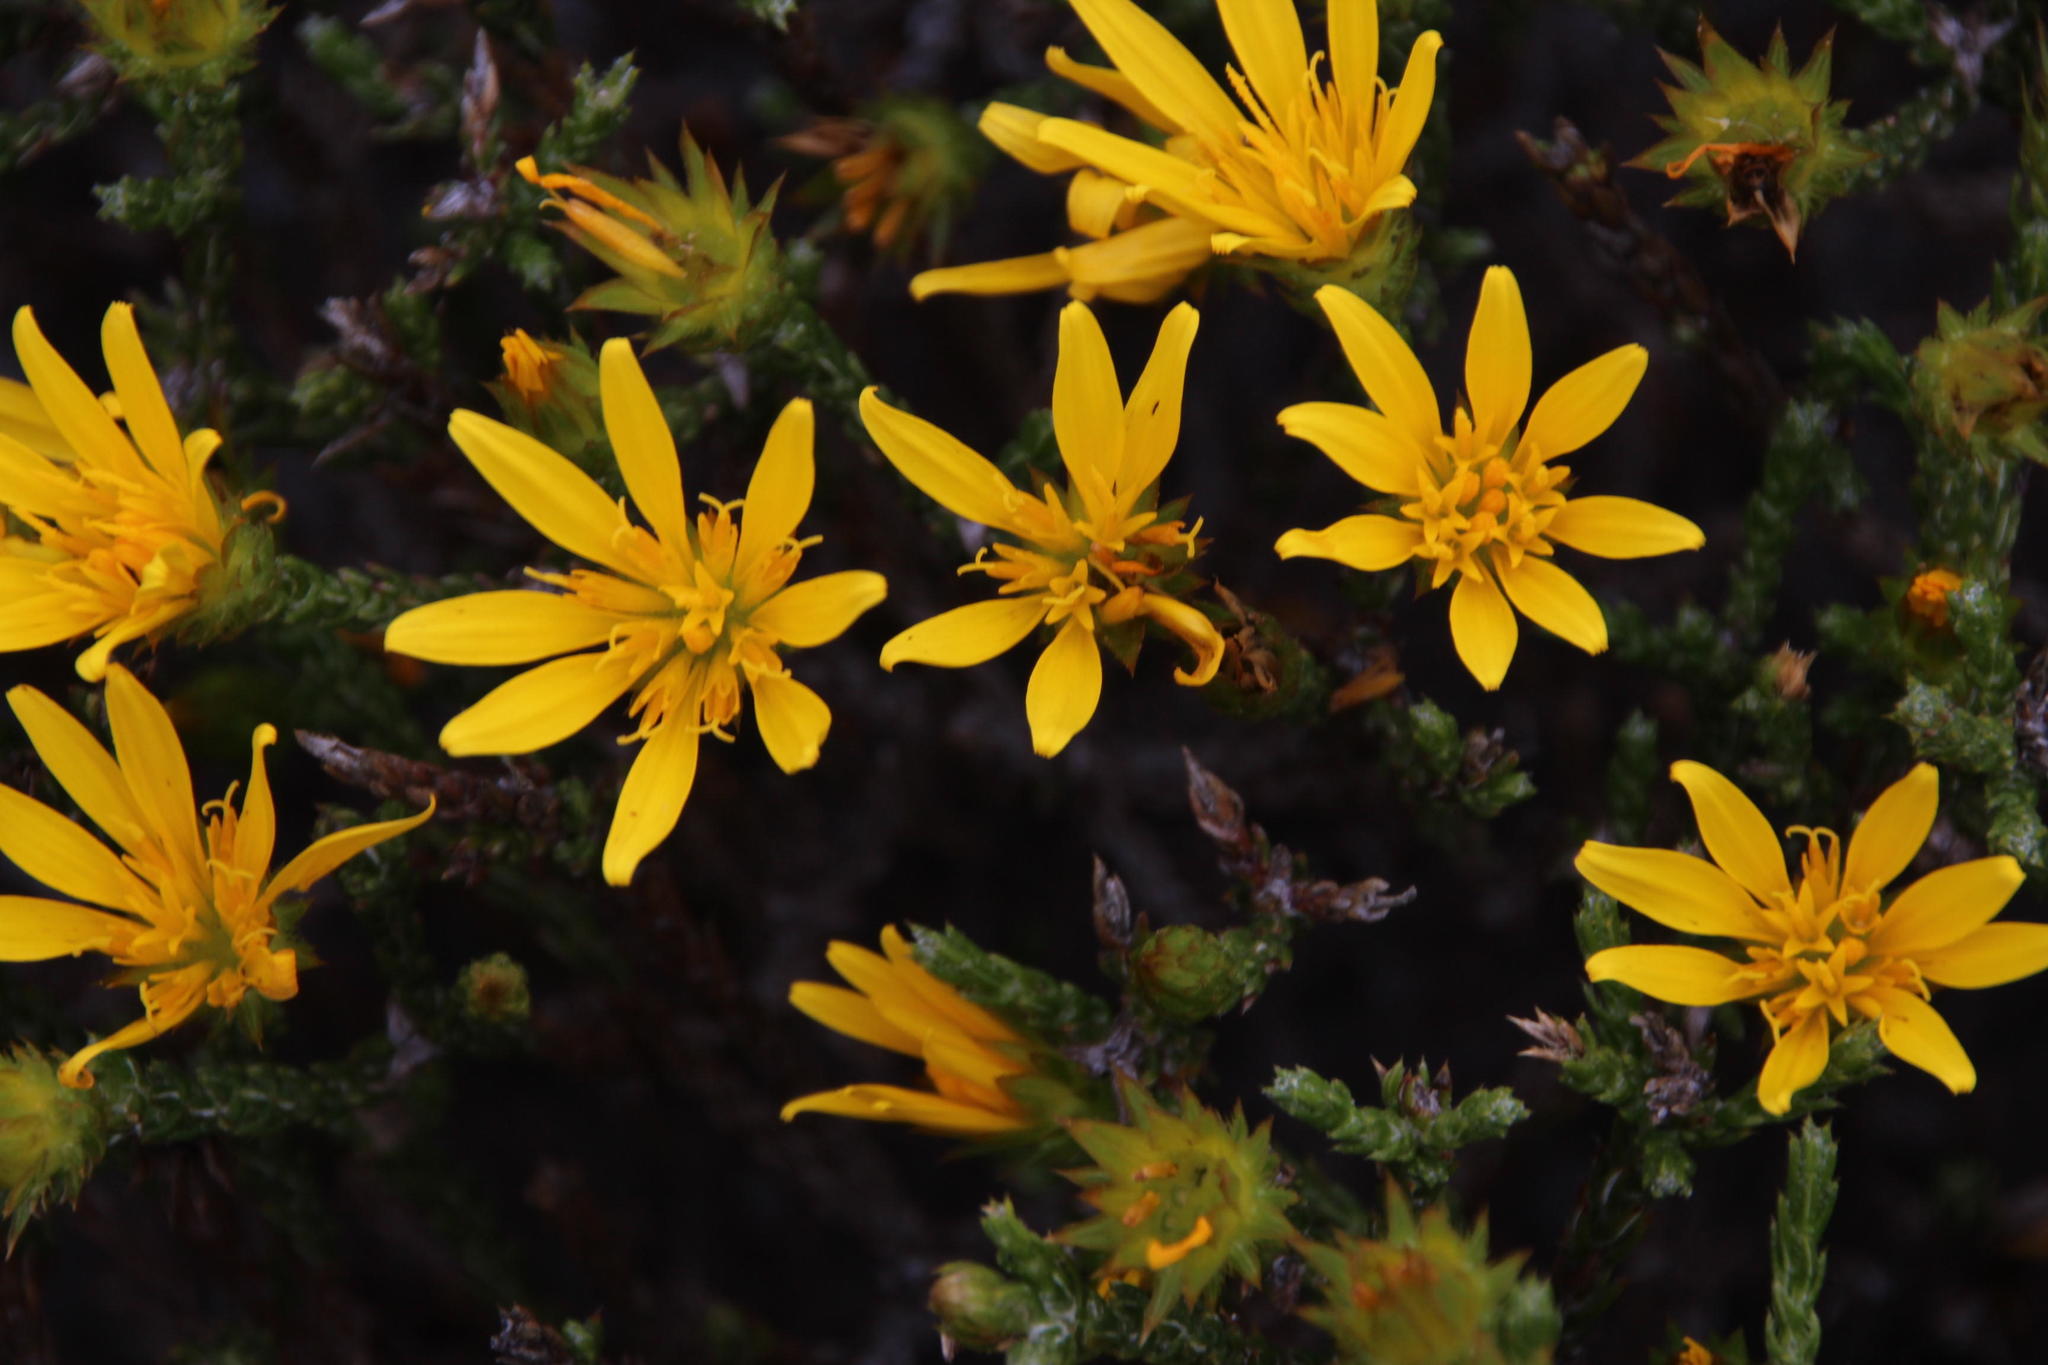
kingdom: Plantae
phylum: Tracheophyta
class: Magnoliopsida
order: Asterales
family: Asteraceae
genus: Cullumia
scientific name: Cullumia sulcata
